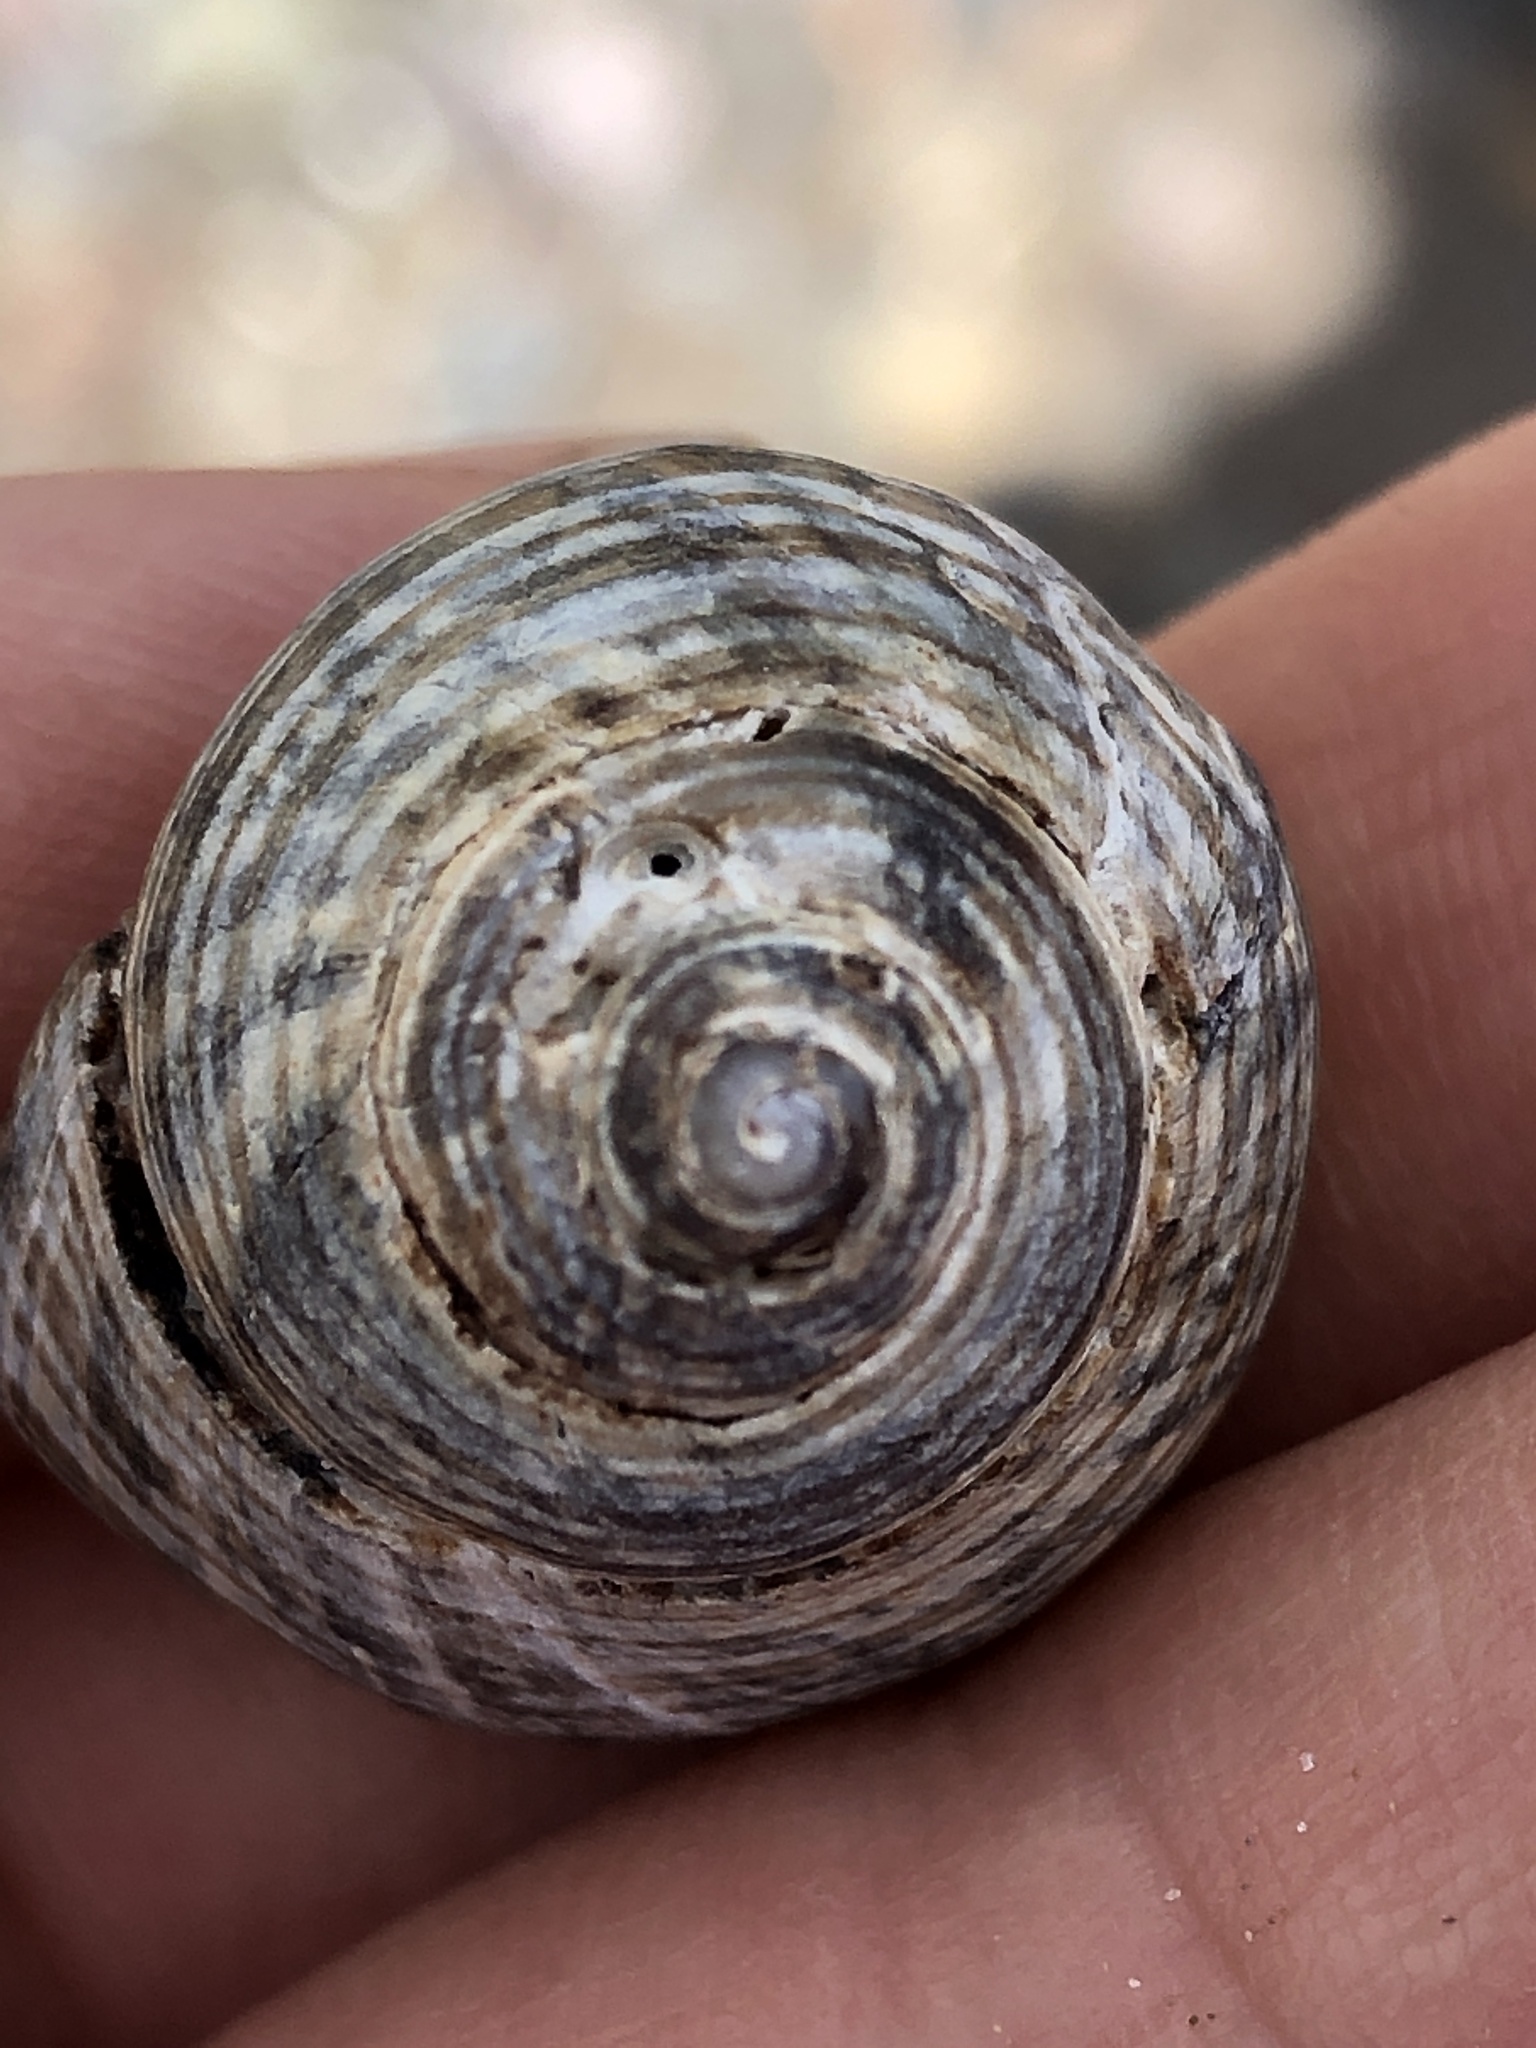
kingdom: Animalia
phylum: Mollusca
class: Gastropoda
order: Littorinimorpha
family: Littorinidae
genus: Littorina
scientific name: Littorina littorea
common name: Common periwinkle
